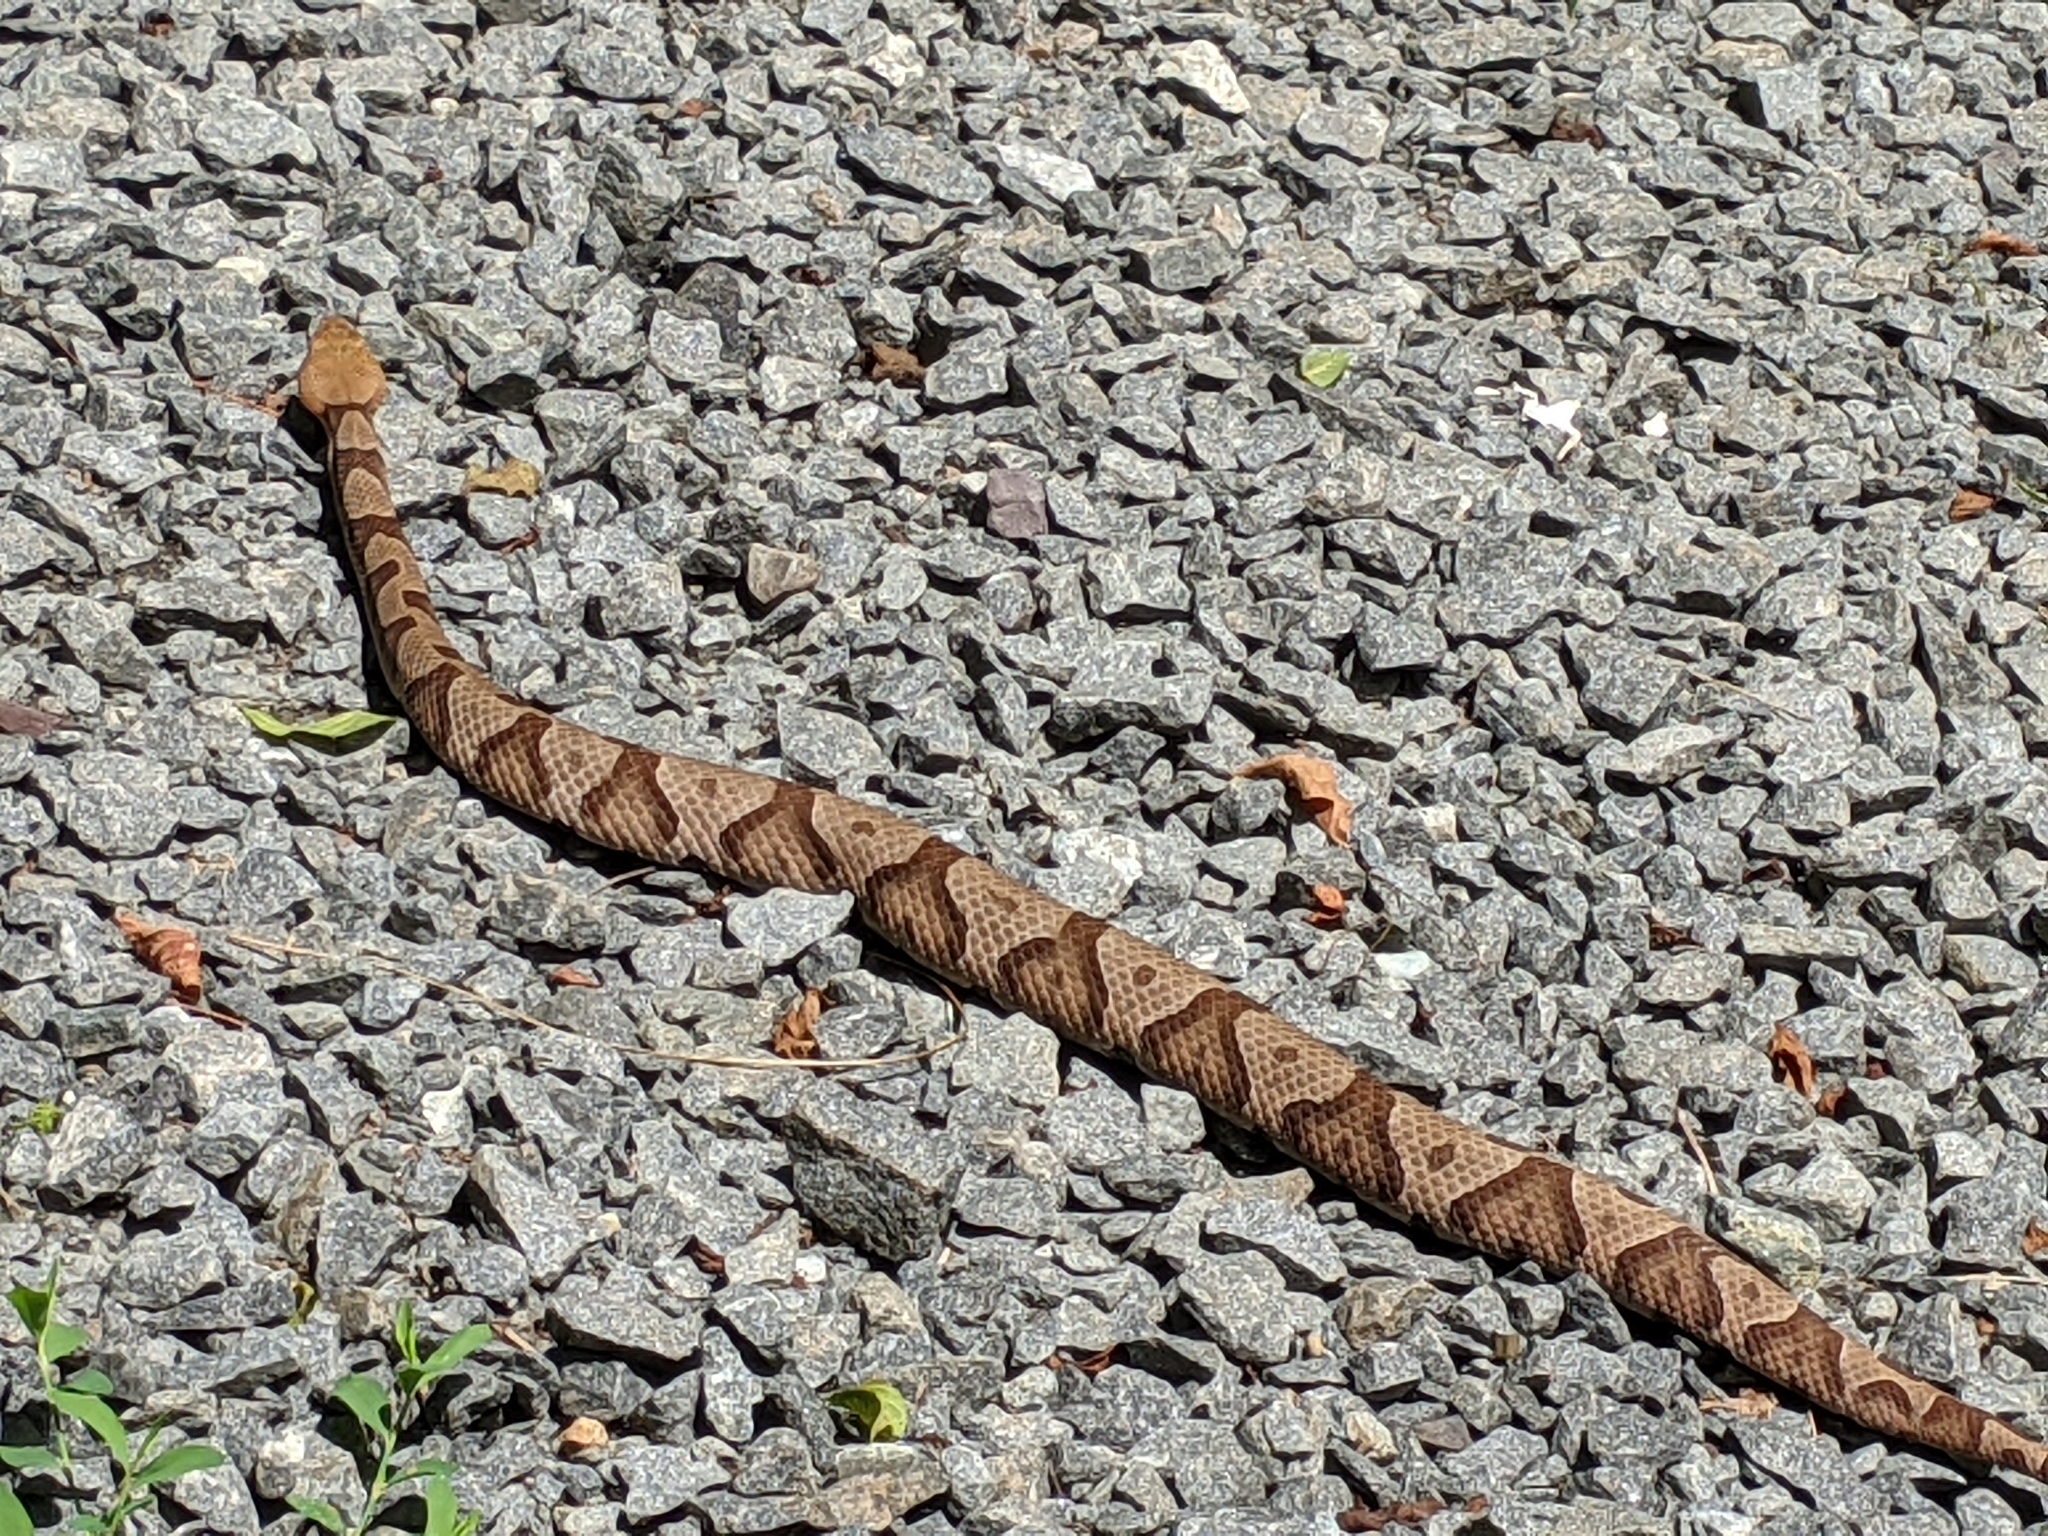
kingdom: Animalia
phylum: Chordata
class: Squamata
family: Viperidae
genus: Agkistrodon
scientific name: Agkistrodon contortrix
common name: Northern copperhead
